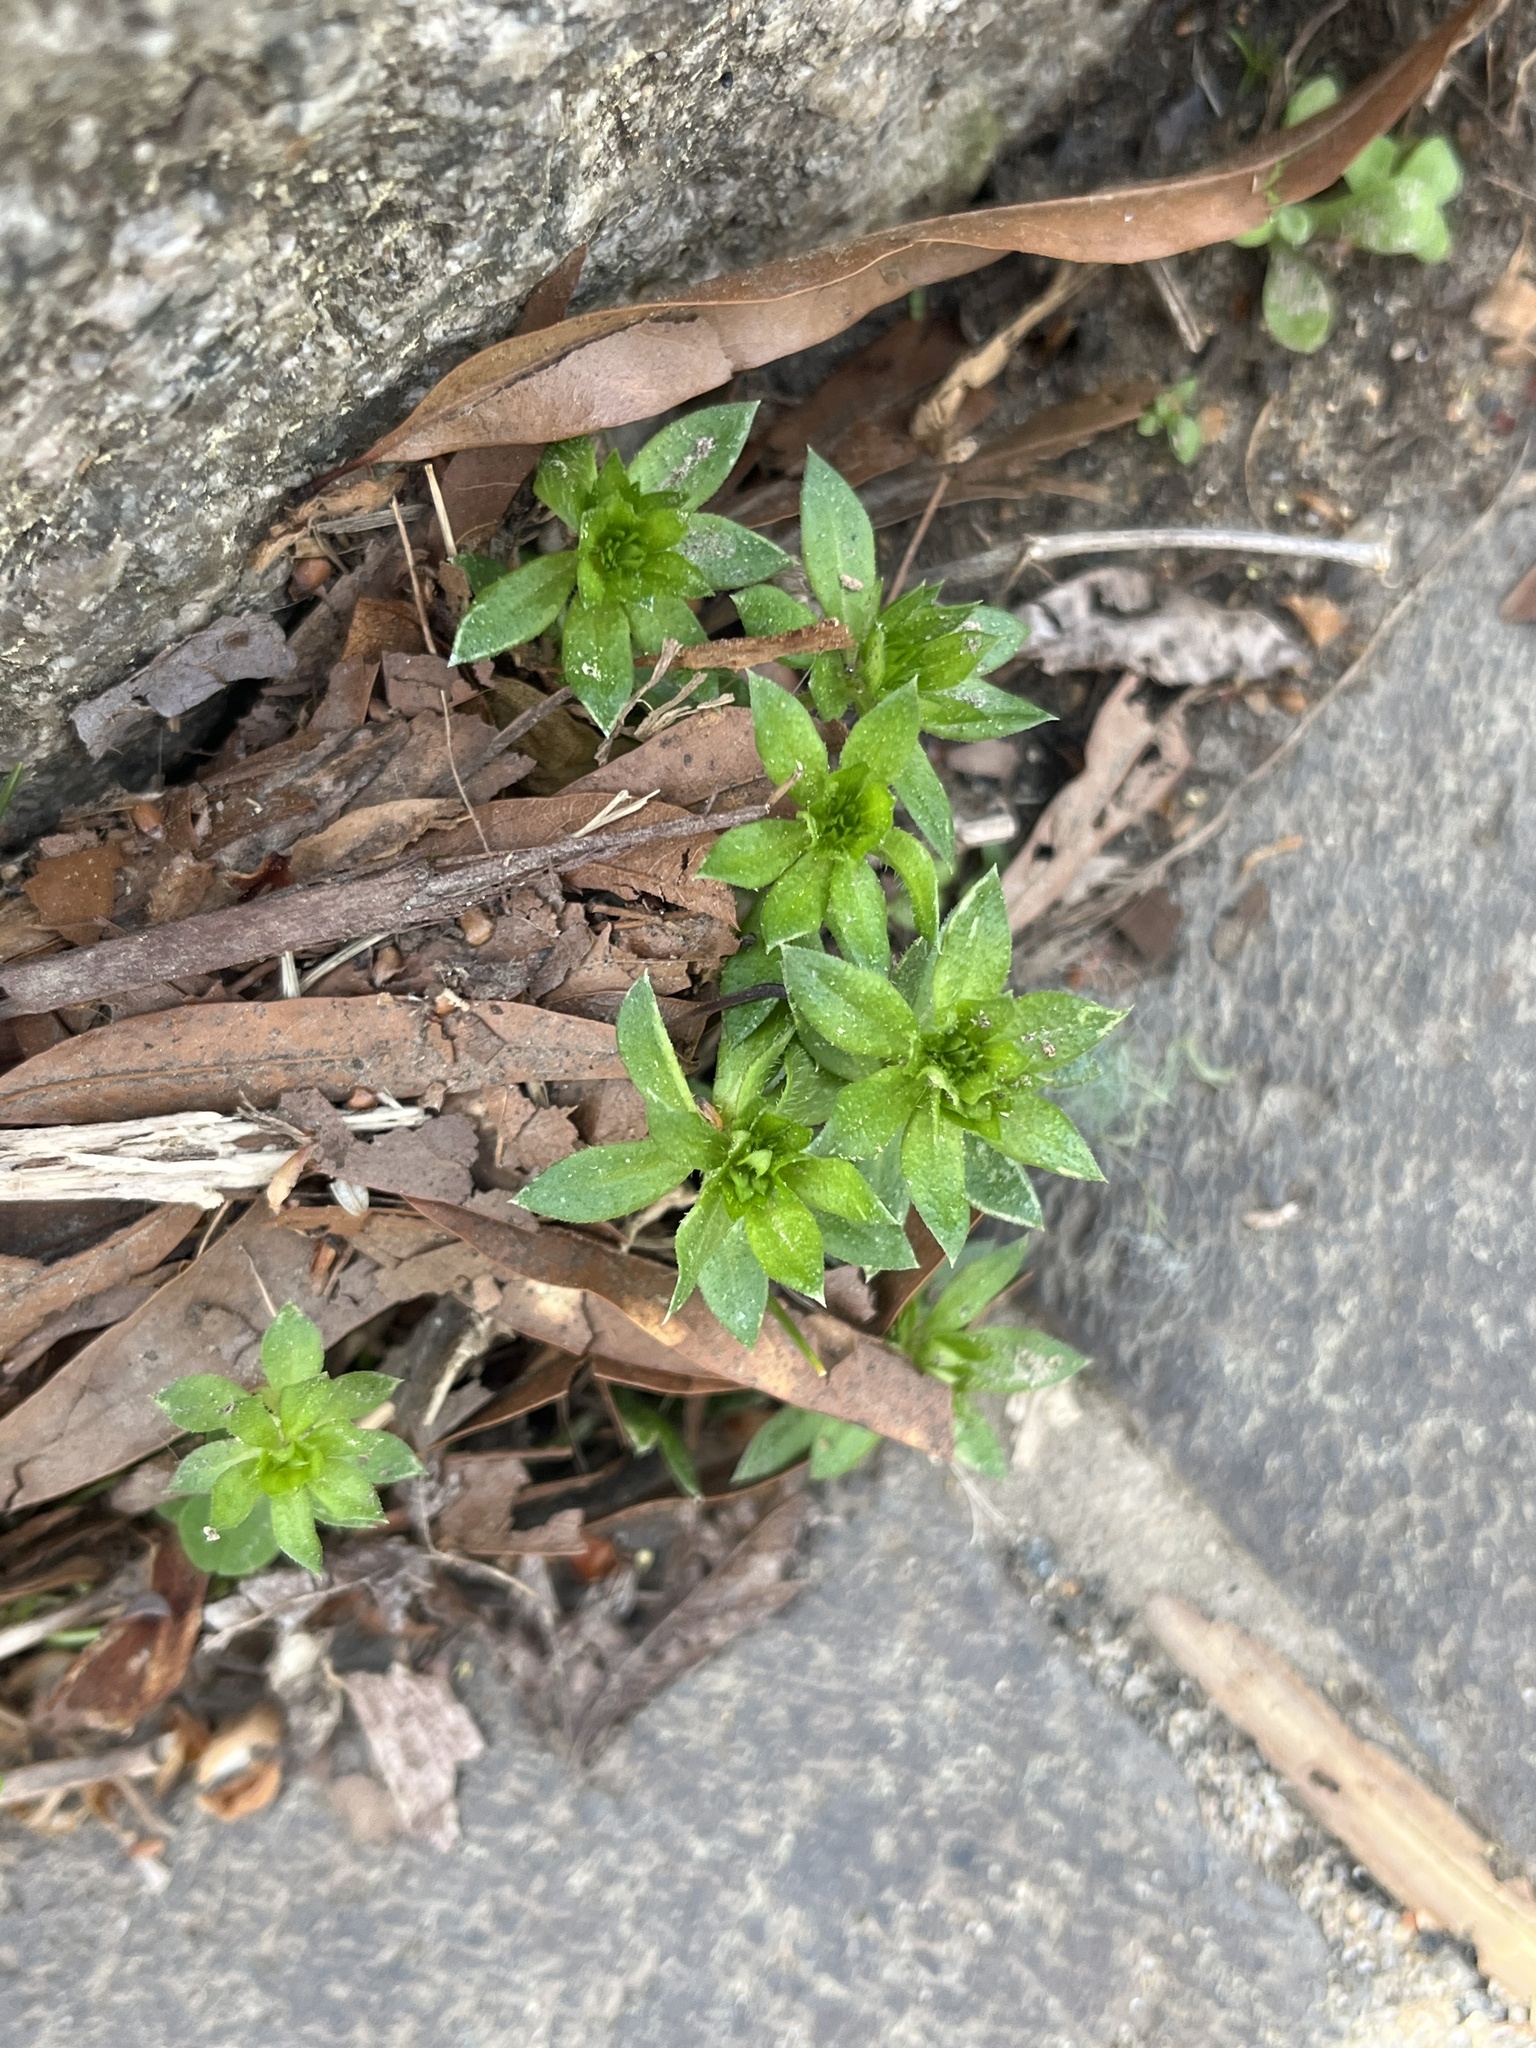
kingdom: Plantae
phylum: Tracheophyta
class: Magnoliopsida
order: Gentianales
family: Rubiaceae
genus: Sherardia
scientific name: Sherardia arvensis
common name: Field madder
